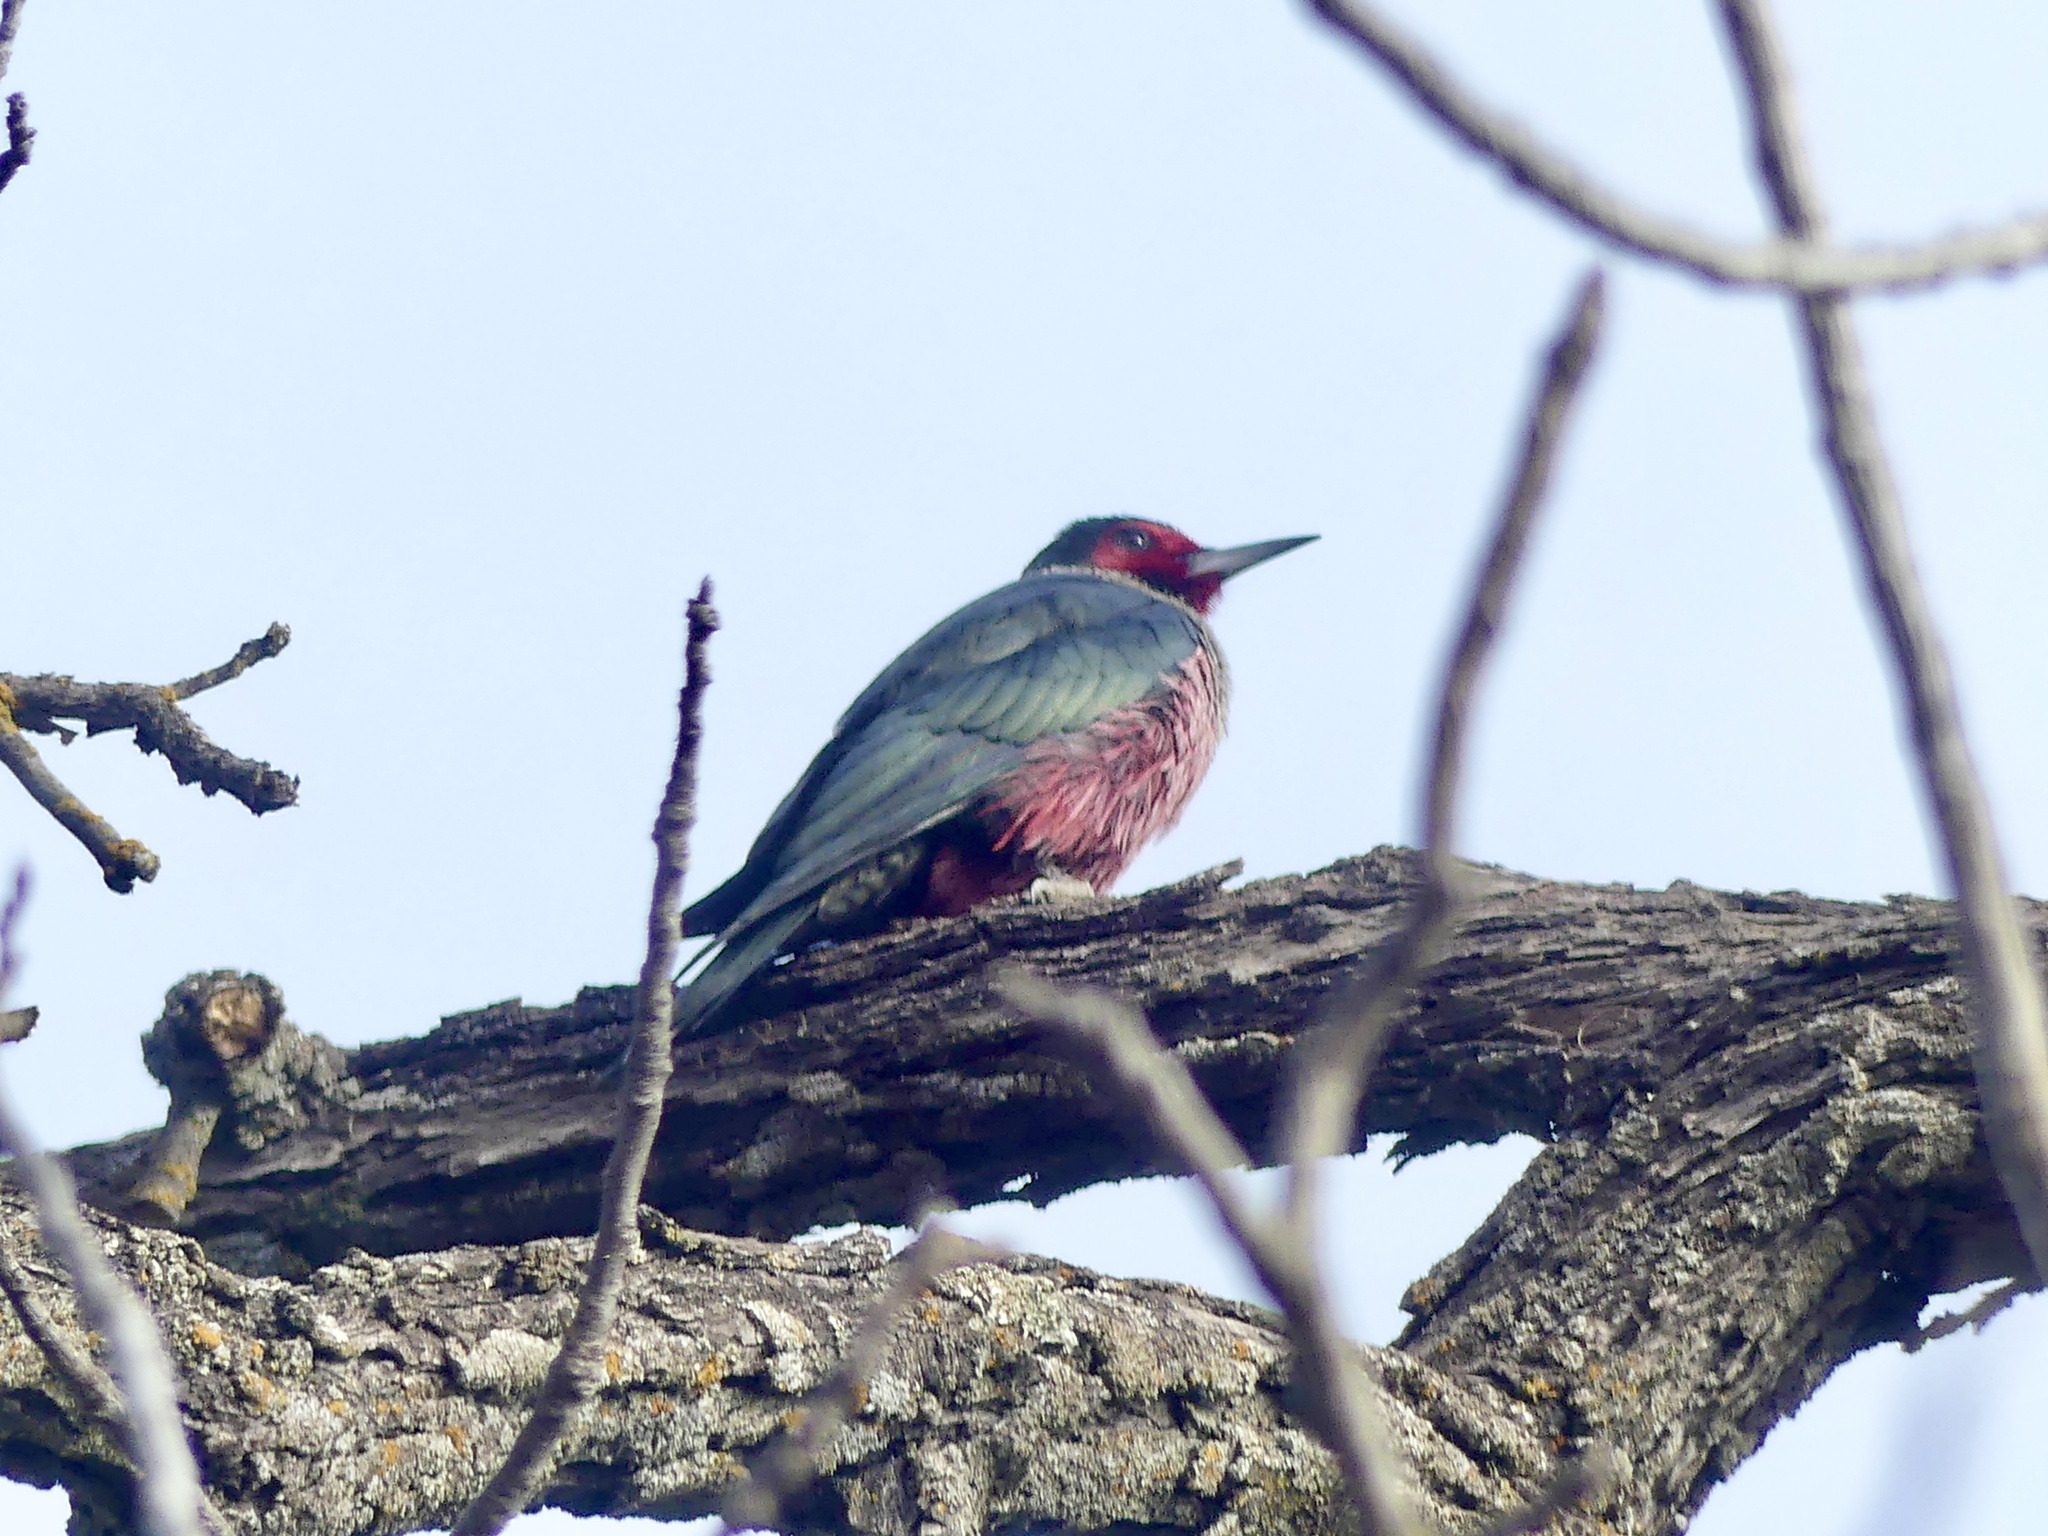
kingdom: Animalia
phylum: Chordata
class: Aves
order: Piciformes
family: Picidae
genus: Melanerpes
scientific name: Melanerpes lewis
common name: Lewis's woodpecker
